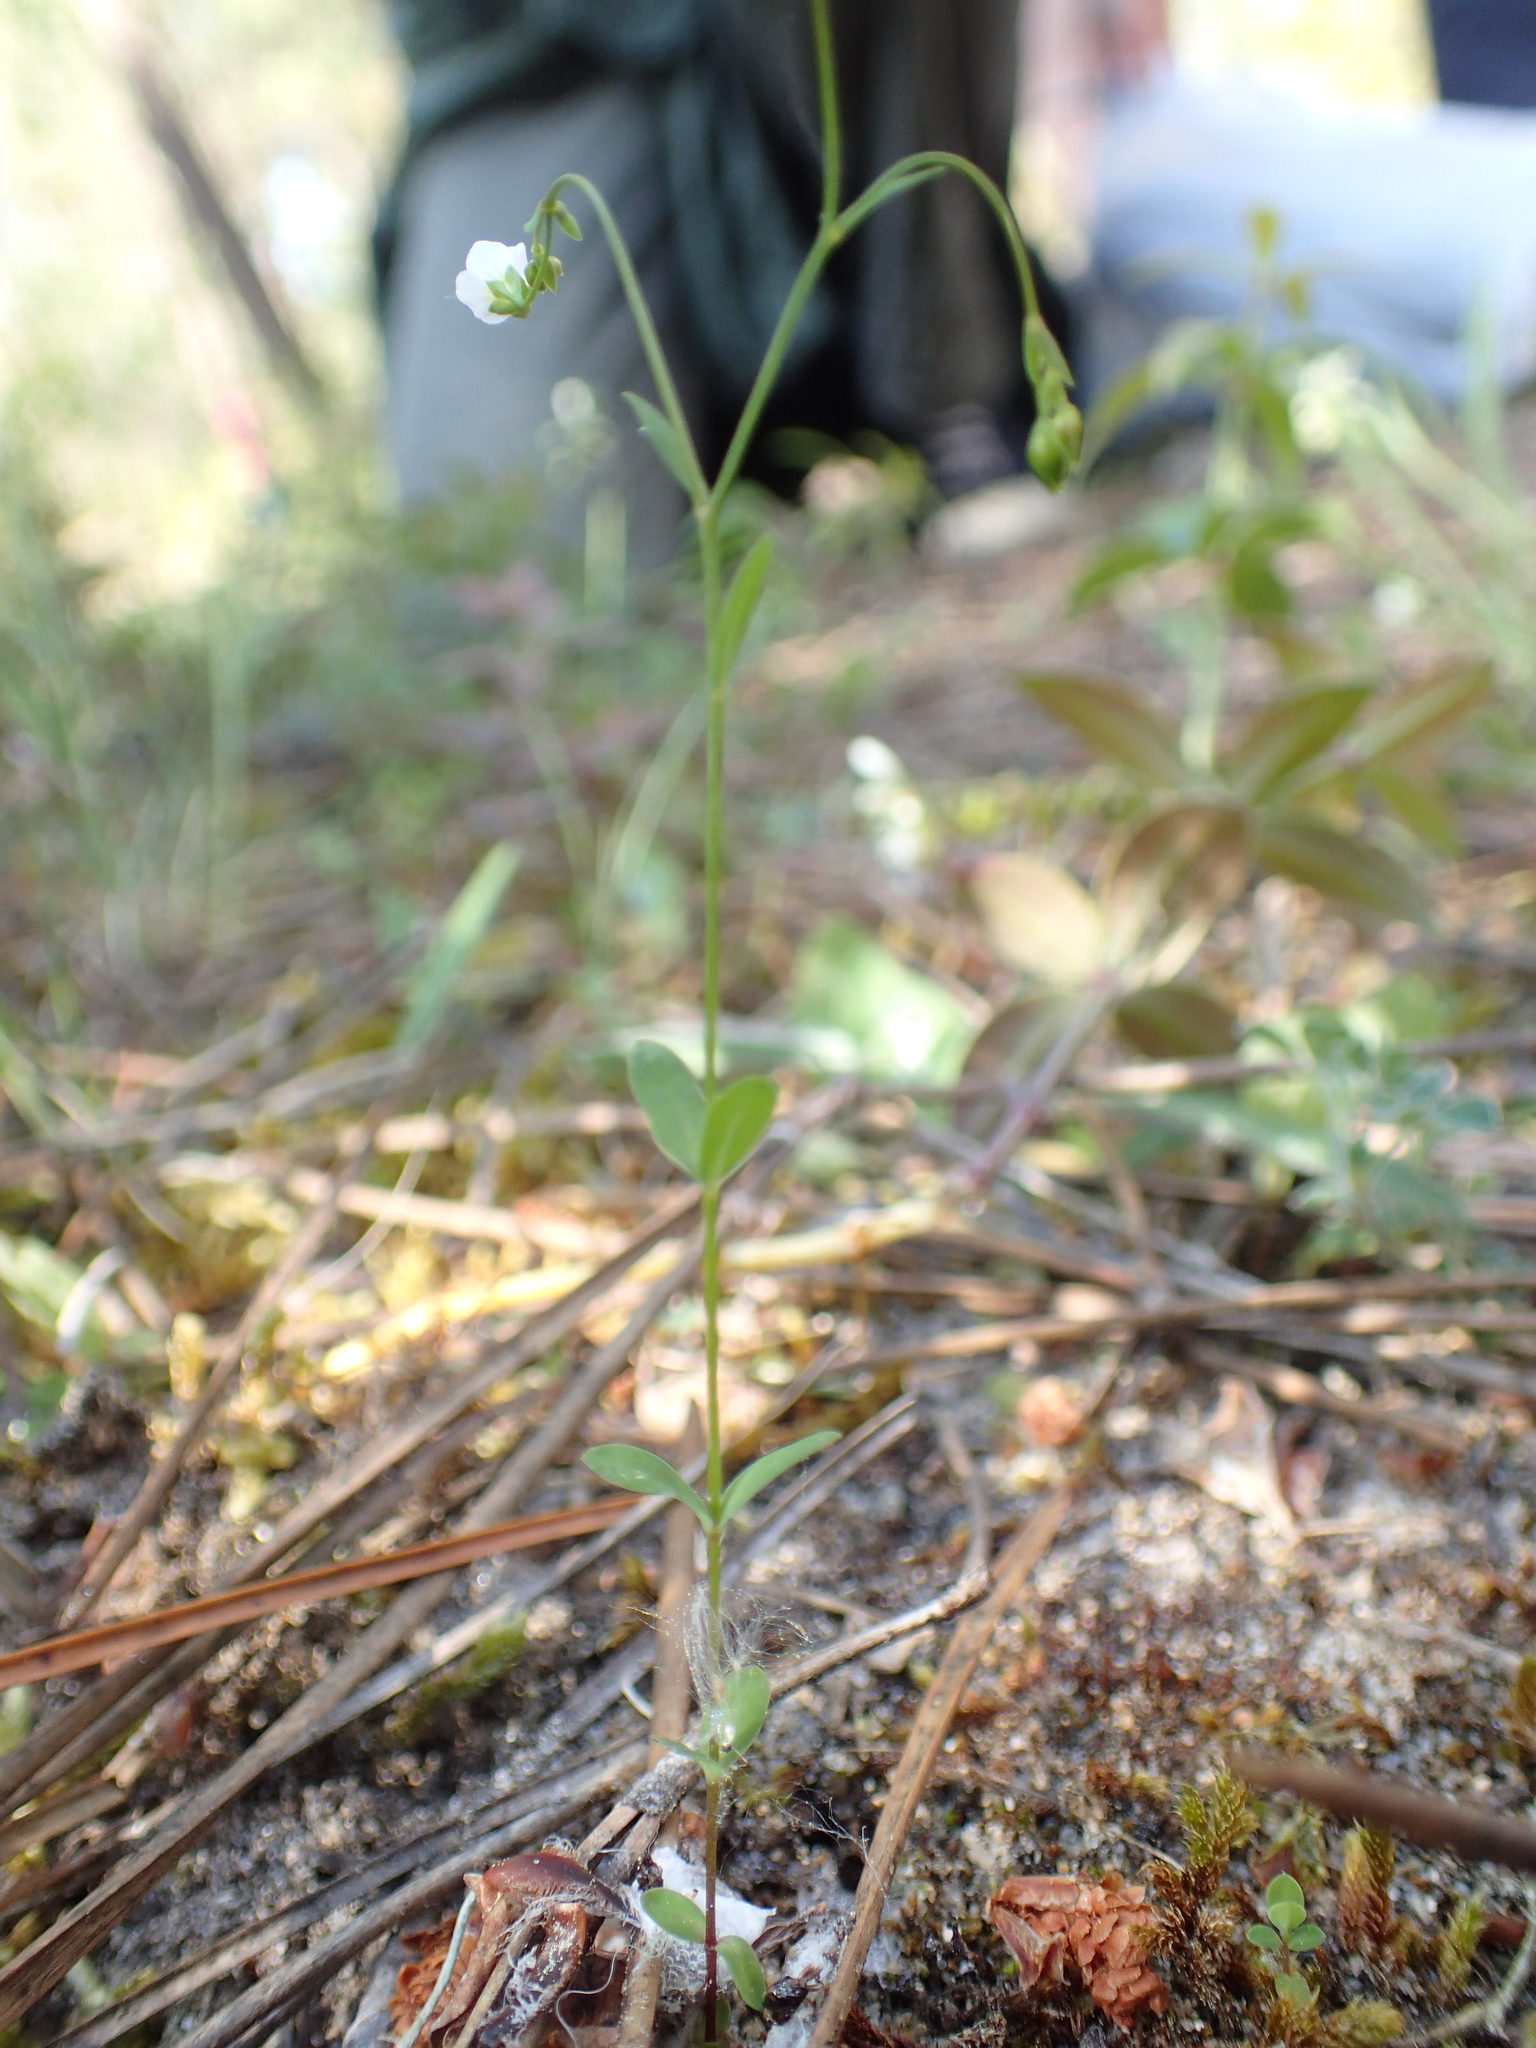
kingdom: Plantae
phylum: Tracheophyta
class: Magnoliopsida
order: Malpighiales
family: Linaceae
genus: Linum
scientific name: Linum catharticum
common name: Fairy flax
